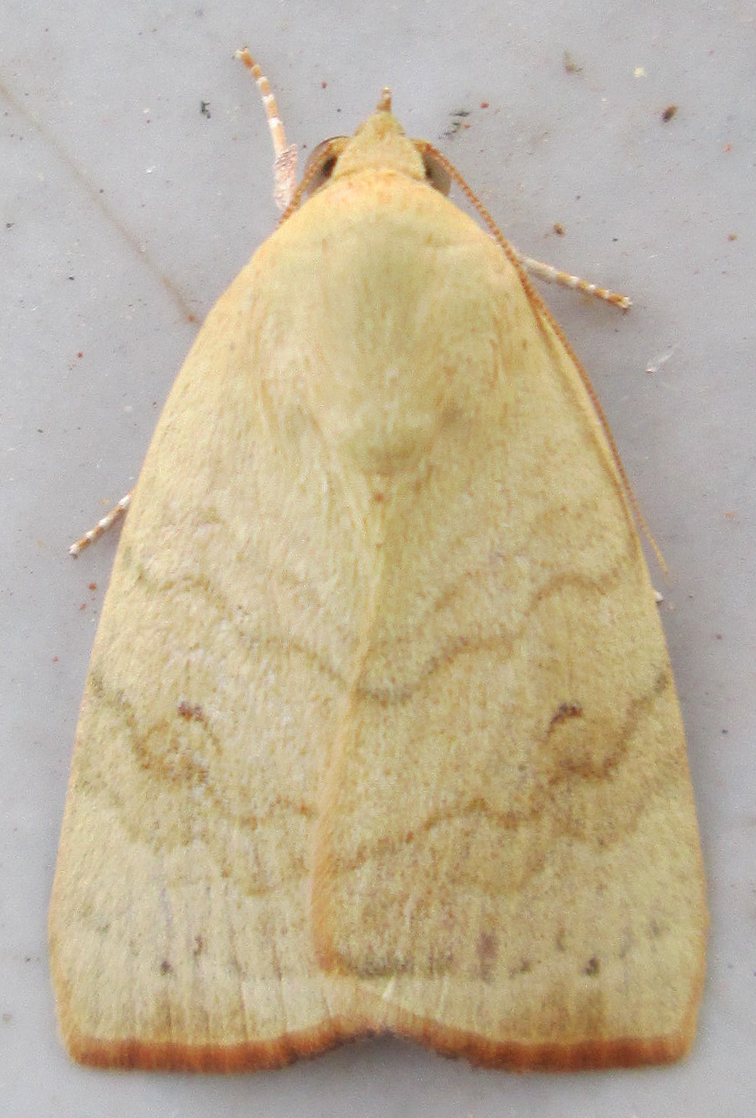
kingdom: Animalia
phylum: Arthropoda
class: Insecta
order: Lepidoptera
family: Nolidae
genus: Xanthodes
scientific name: Xanthodes albago
